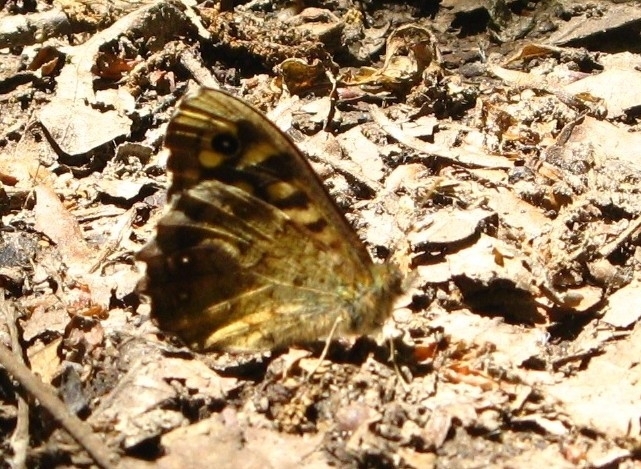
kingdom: Animalia
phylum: Arthropoda
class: Insecta
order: Lepidoptera
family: Nymphalidae
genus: Pararge
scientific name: Pararge aegeria
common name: Speckled wood
